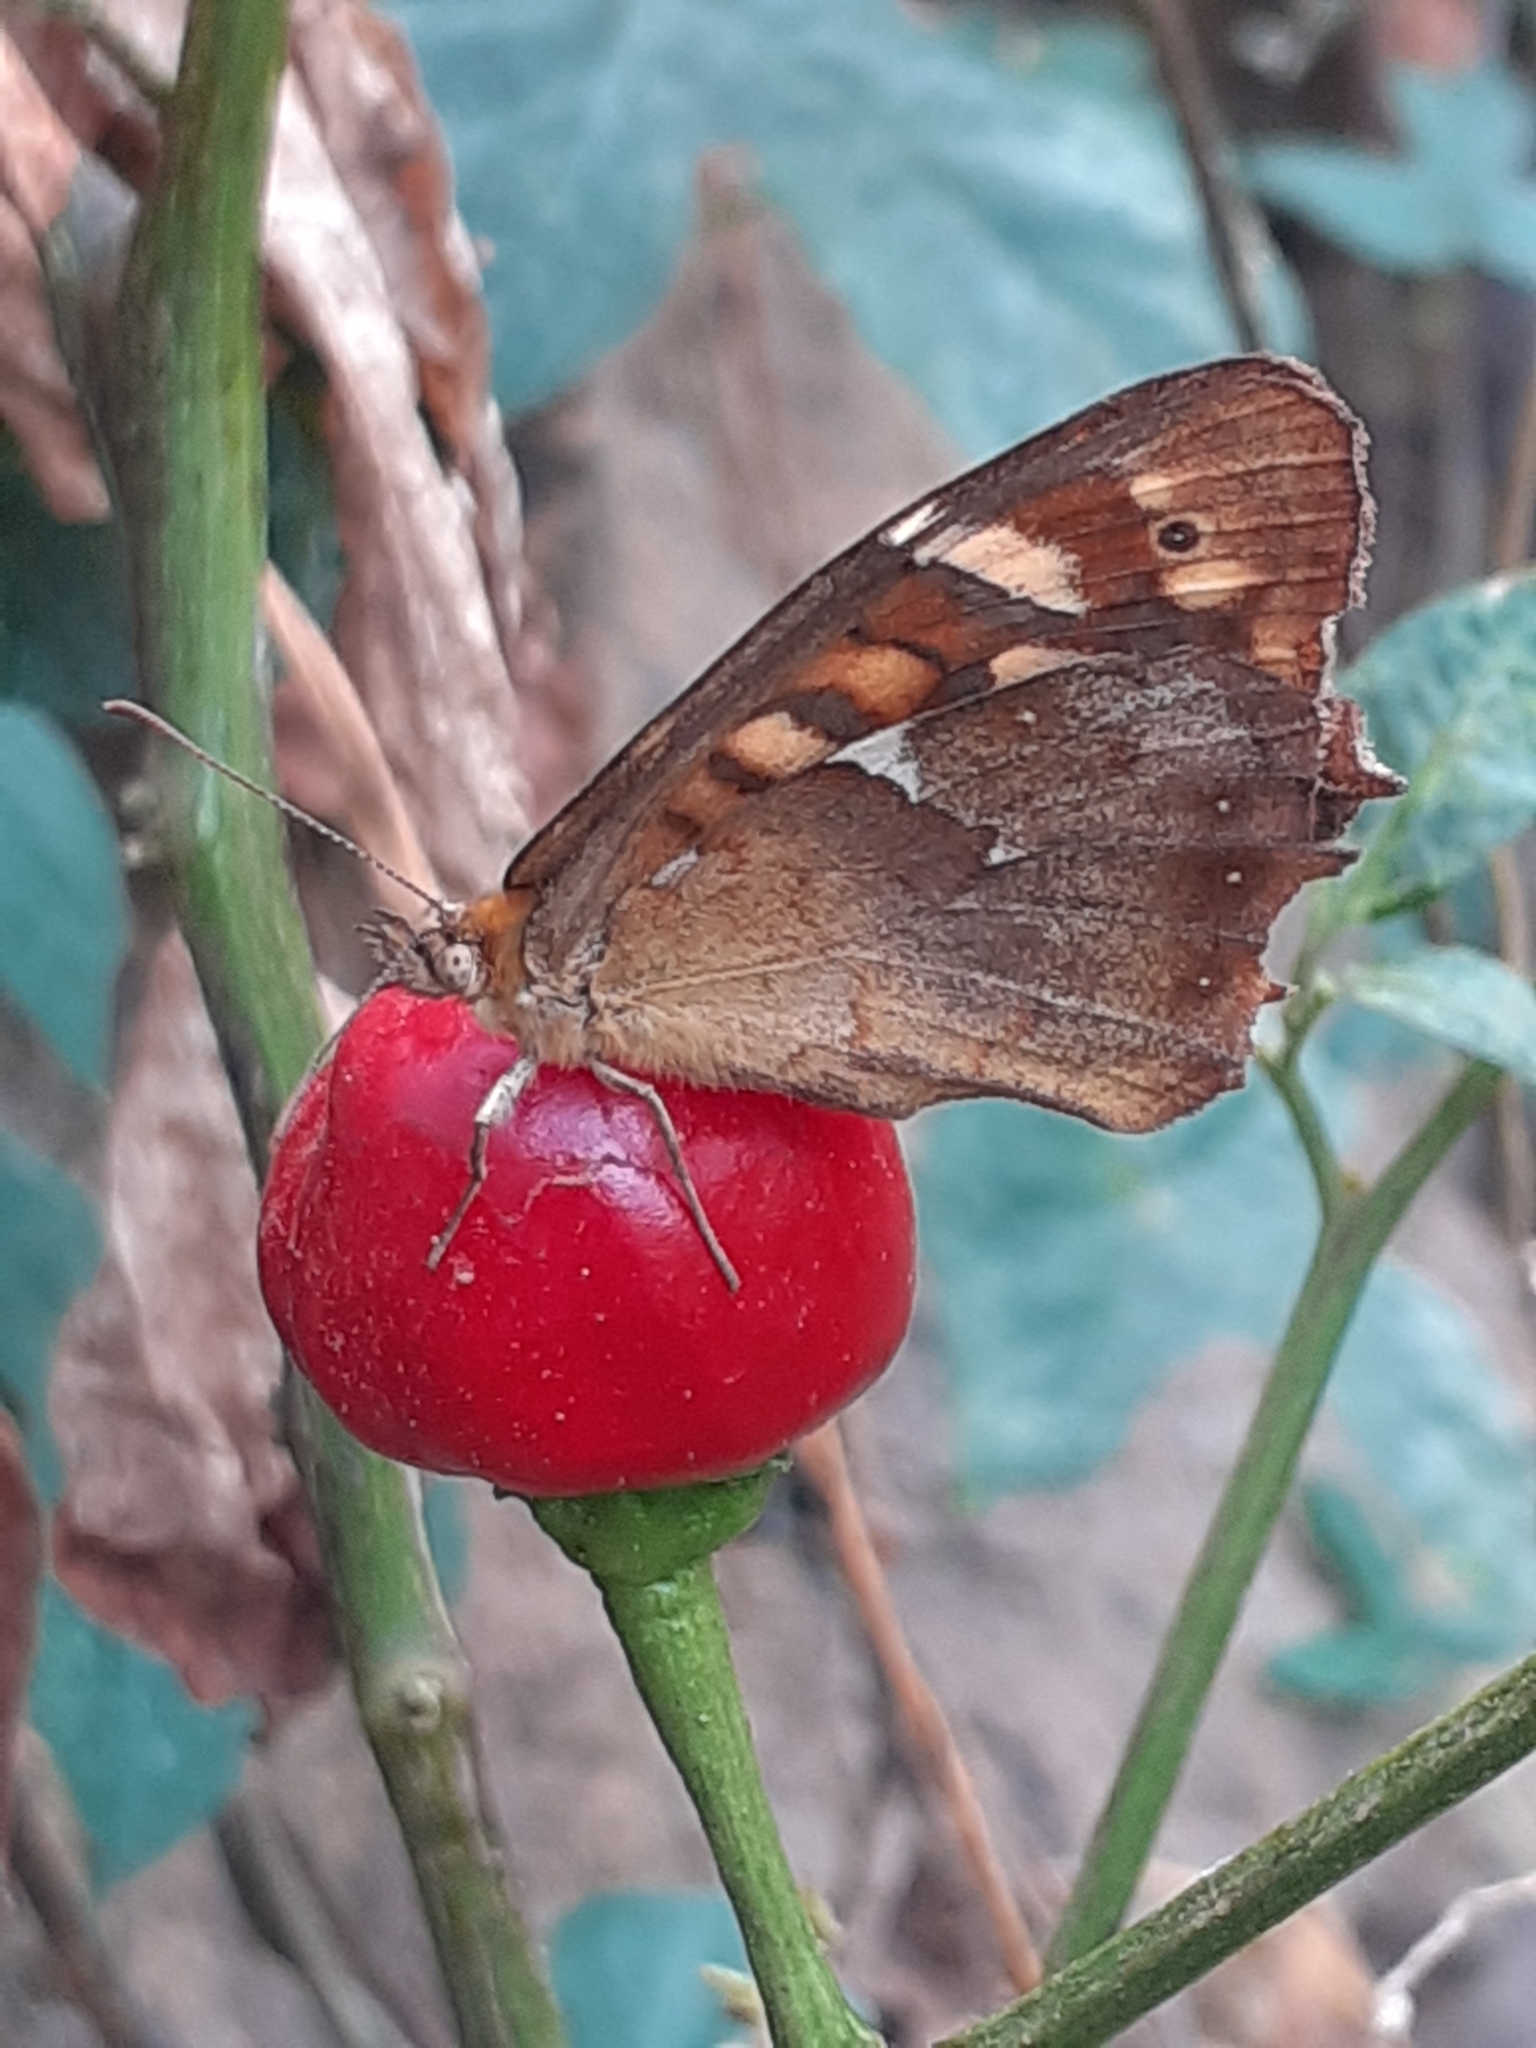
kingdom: Animalia
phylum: Arthropoda
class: Insecta
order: Lepidoptera
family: Nymphalidae
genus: Pararge
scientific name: Pararge aegeria
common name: Speckled wood
